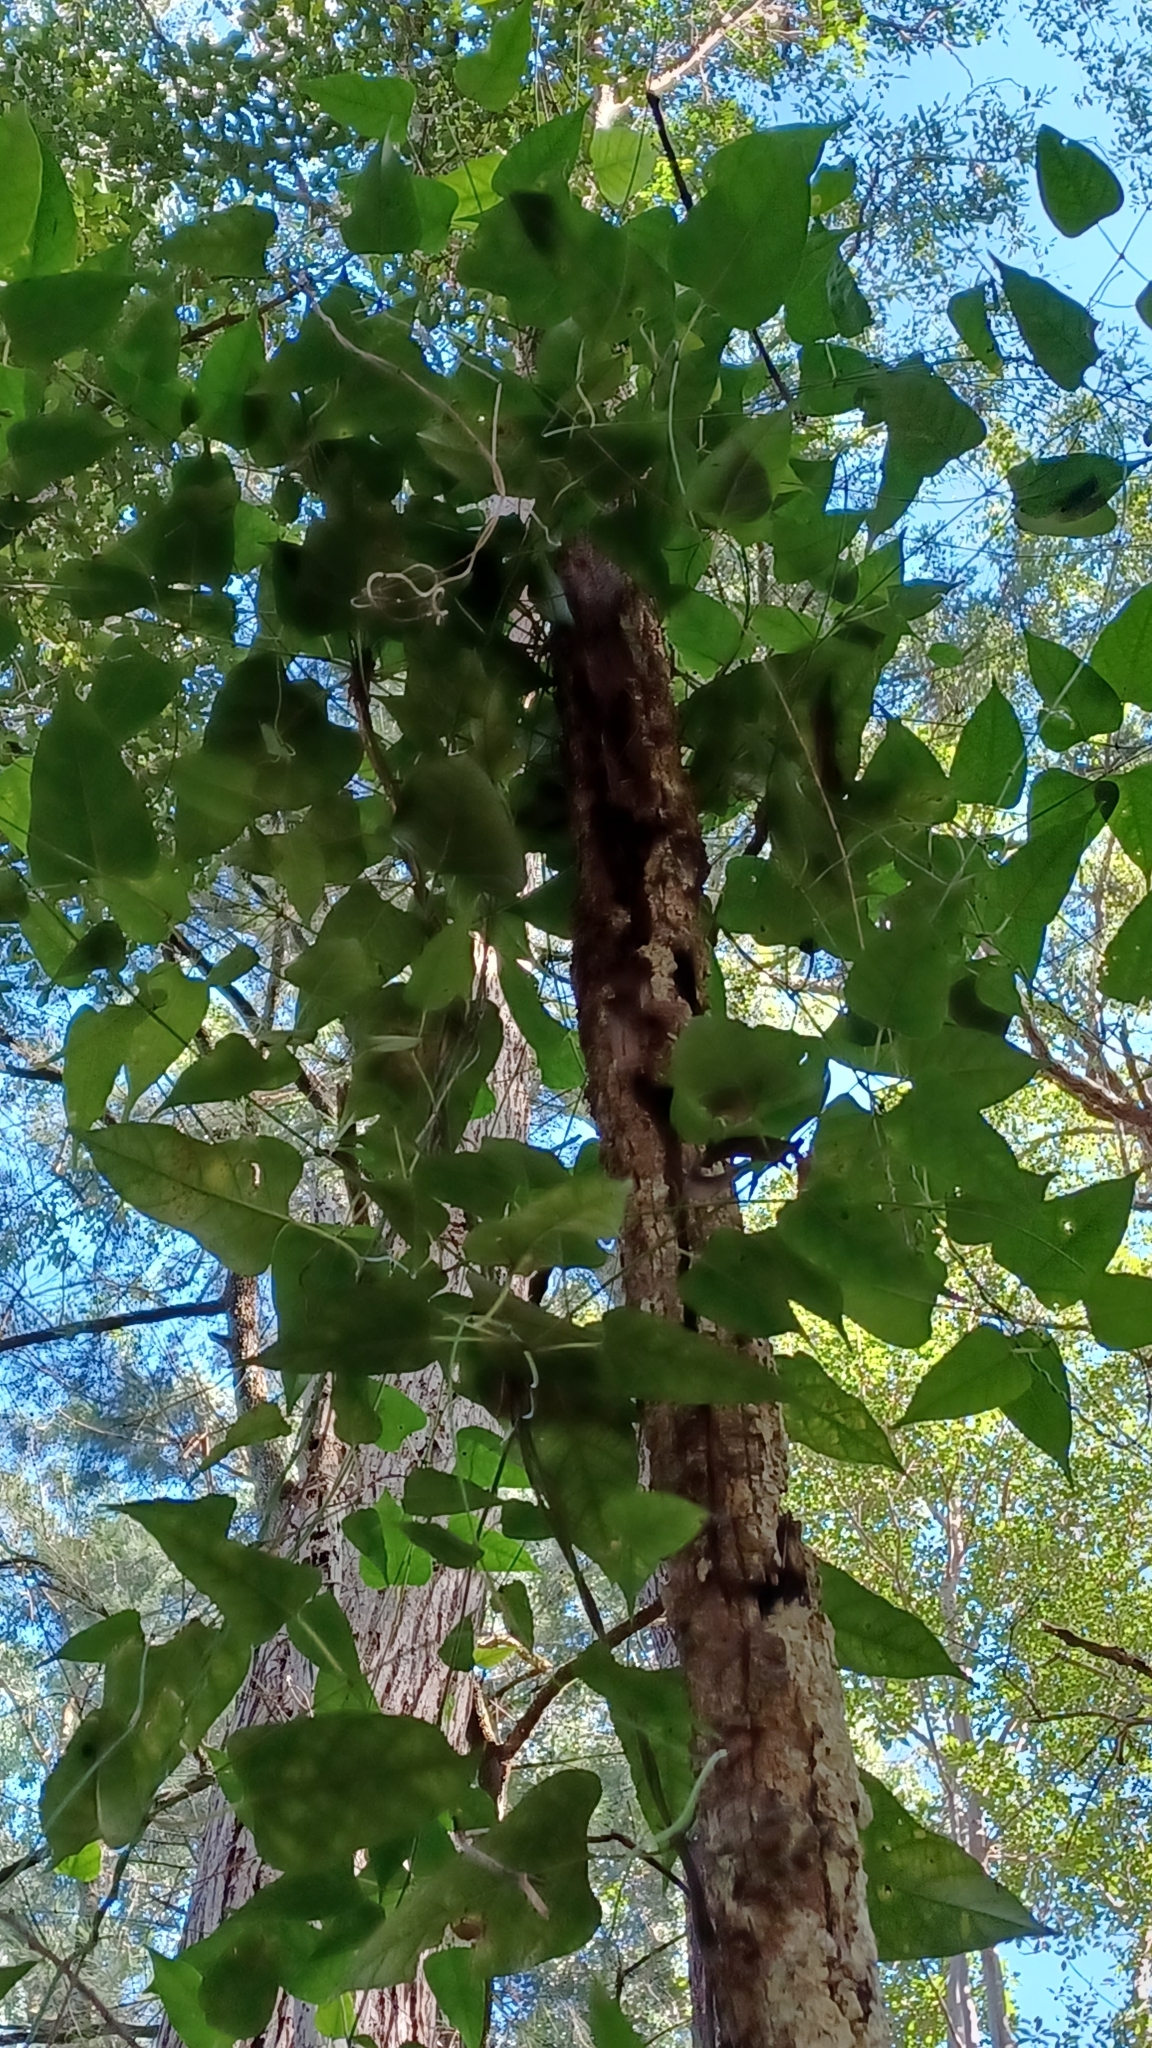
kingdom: Plantae
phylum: Tracheophyta
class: Magnoliopsida
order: Gentianales
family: Apocynaceae
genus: Parsonsia
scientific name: Parsonsia dorrigoensis
